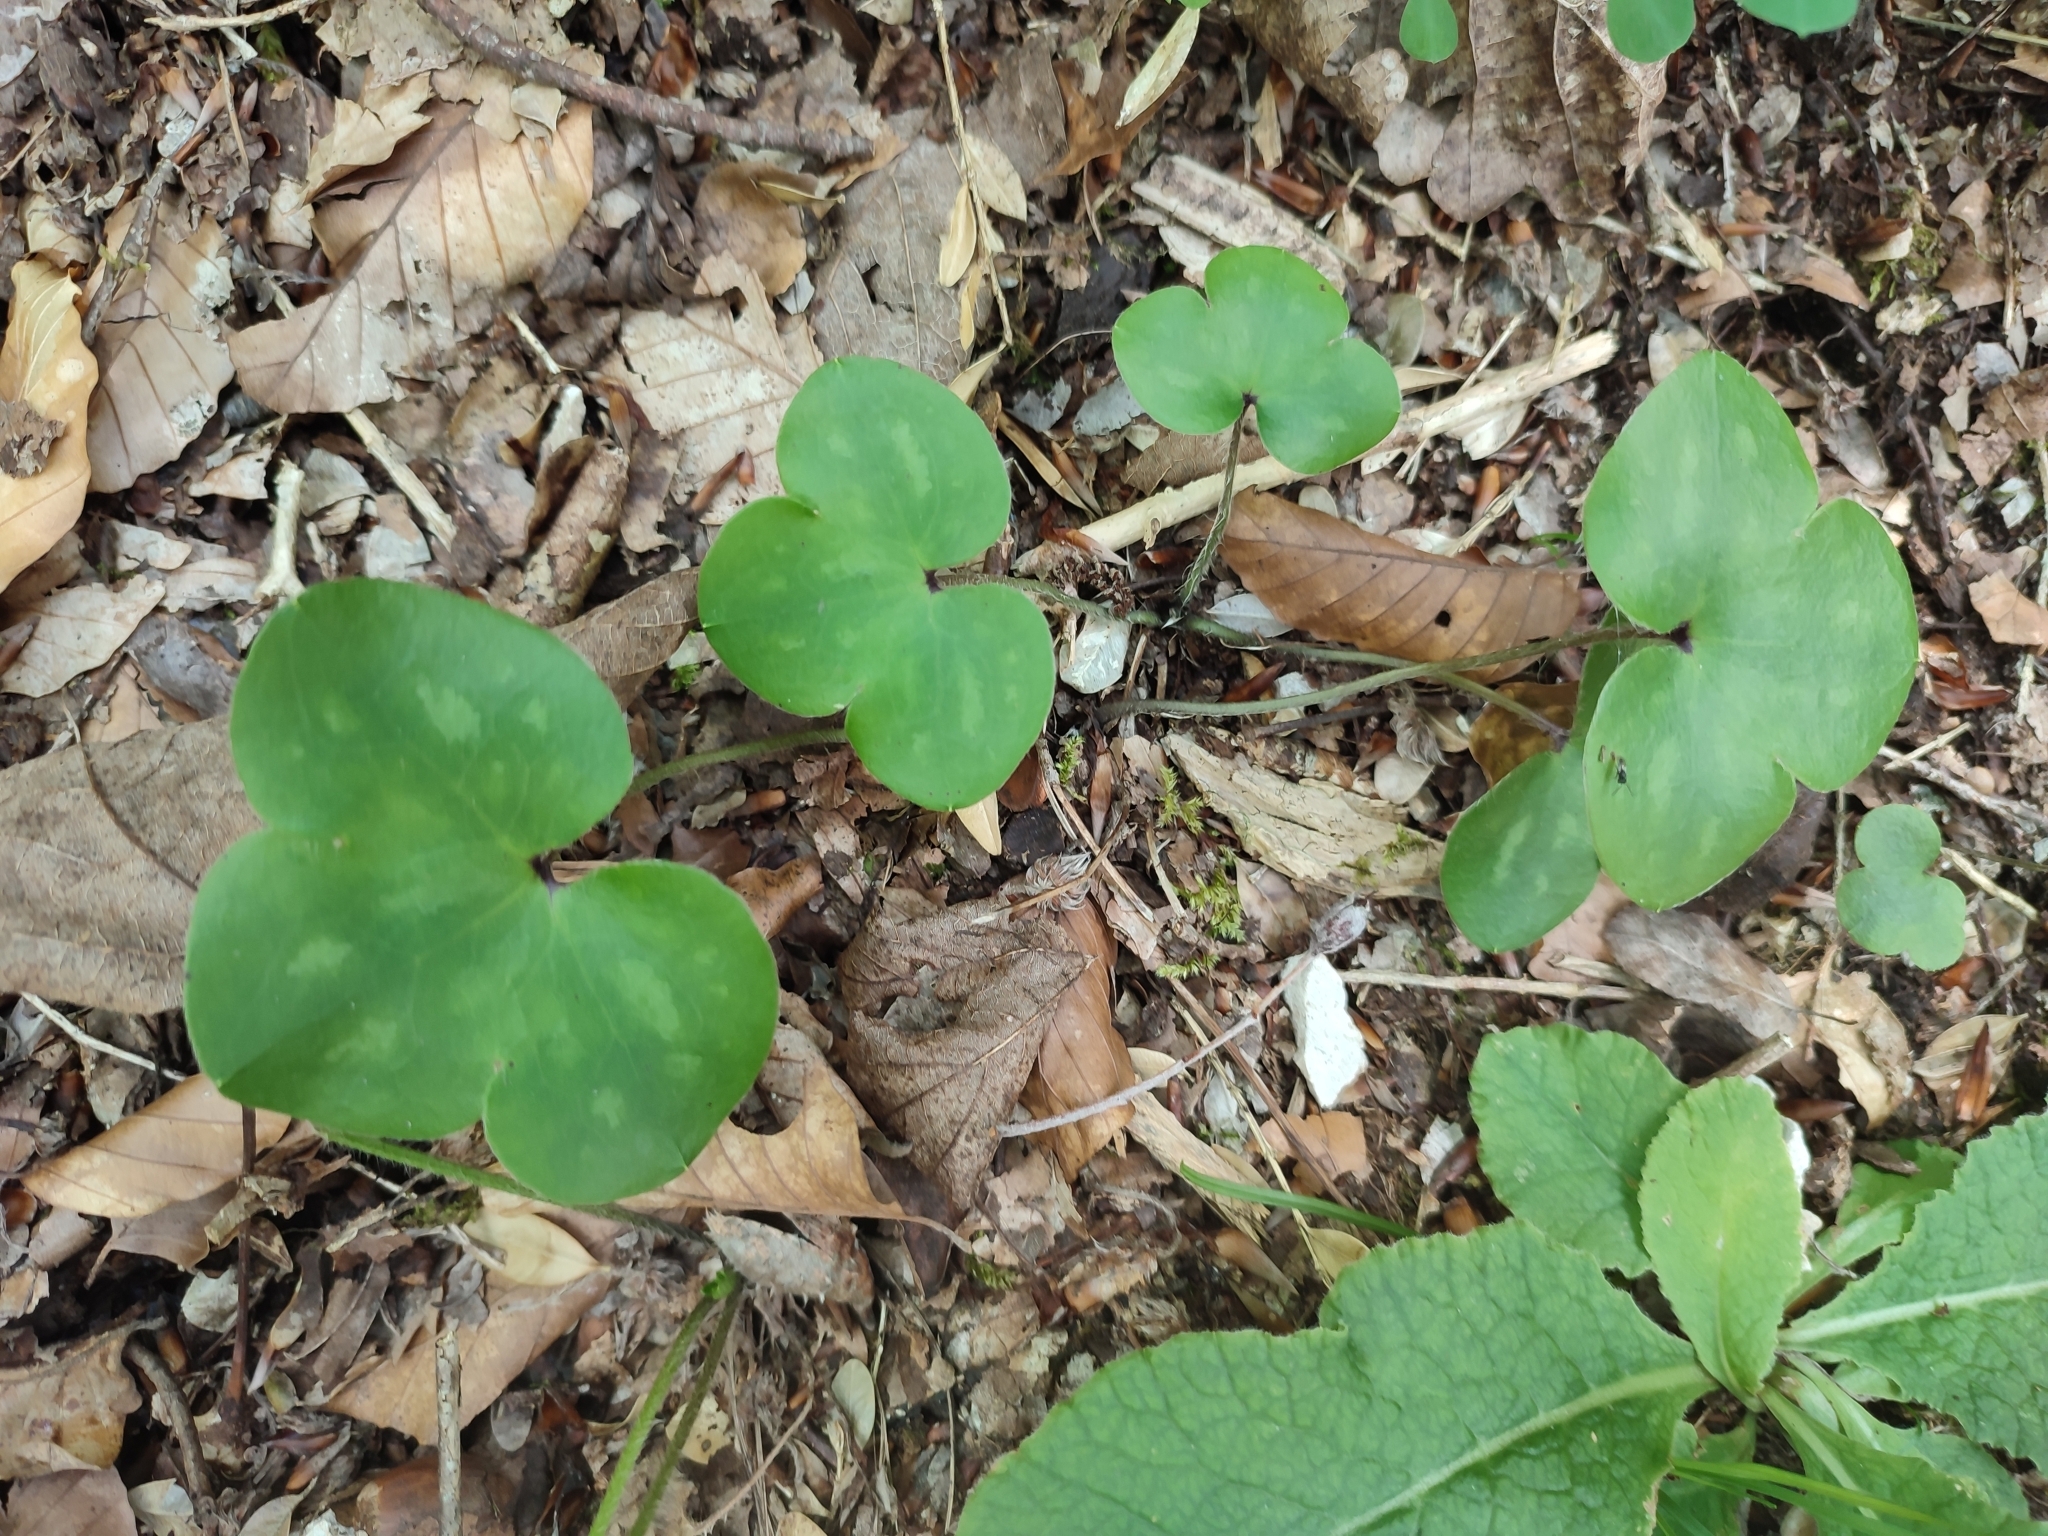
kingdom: Plantae
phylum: Tracheophyta
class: Magnoliopsida
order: Ranunculales
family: Ranunculaceae
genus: Hepatica
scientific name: Hepatica nobilis
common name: Liverleaf
